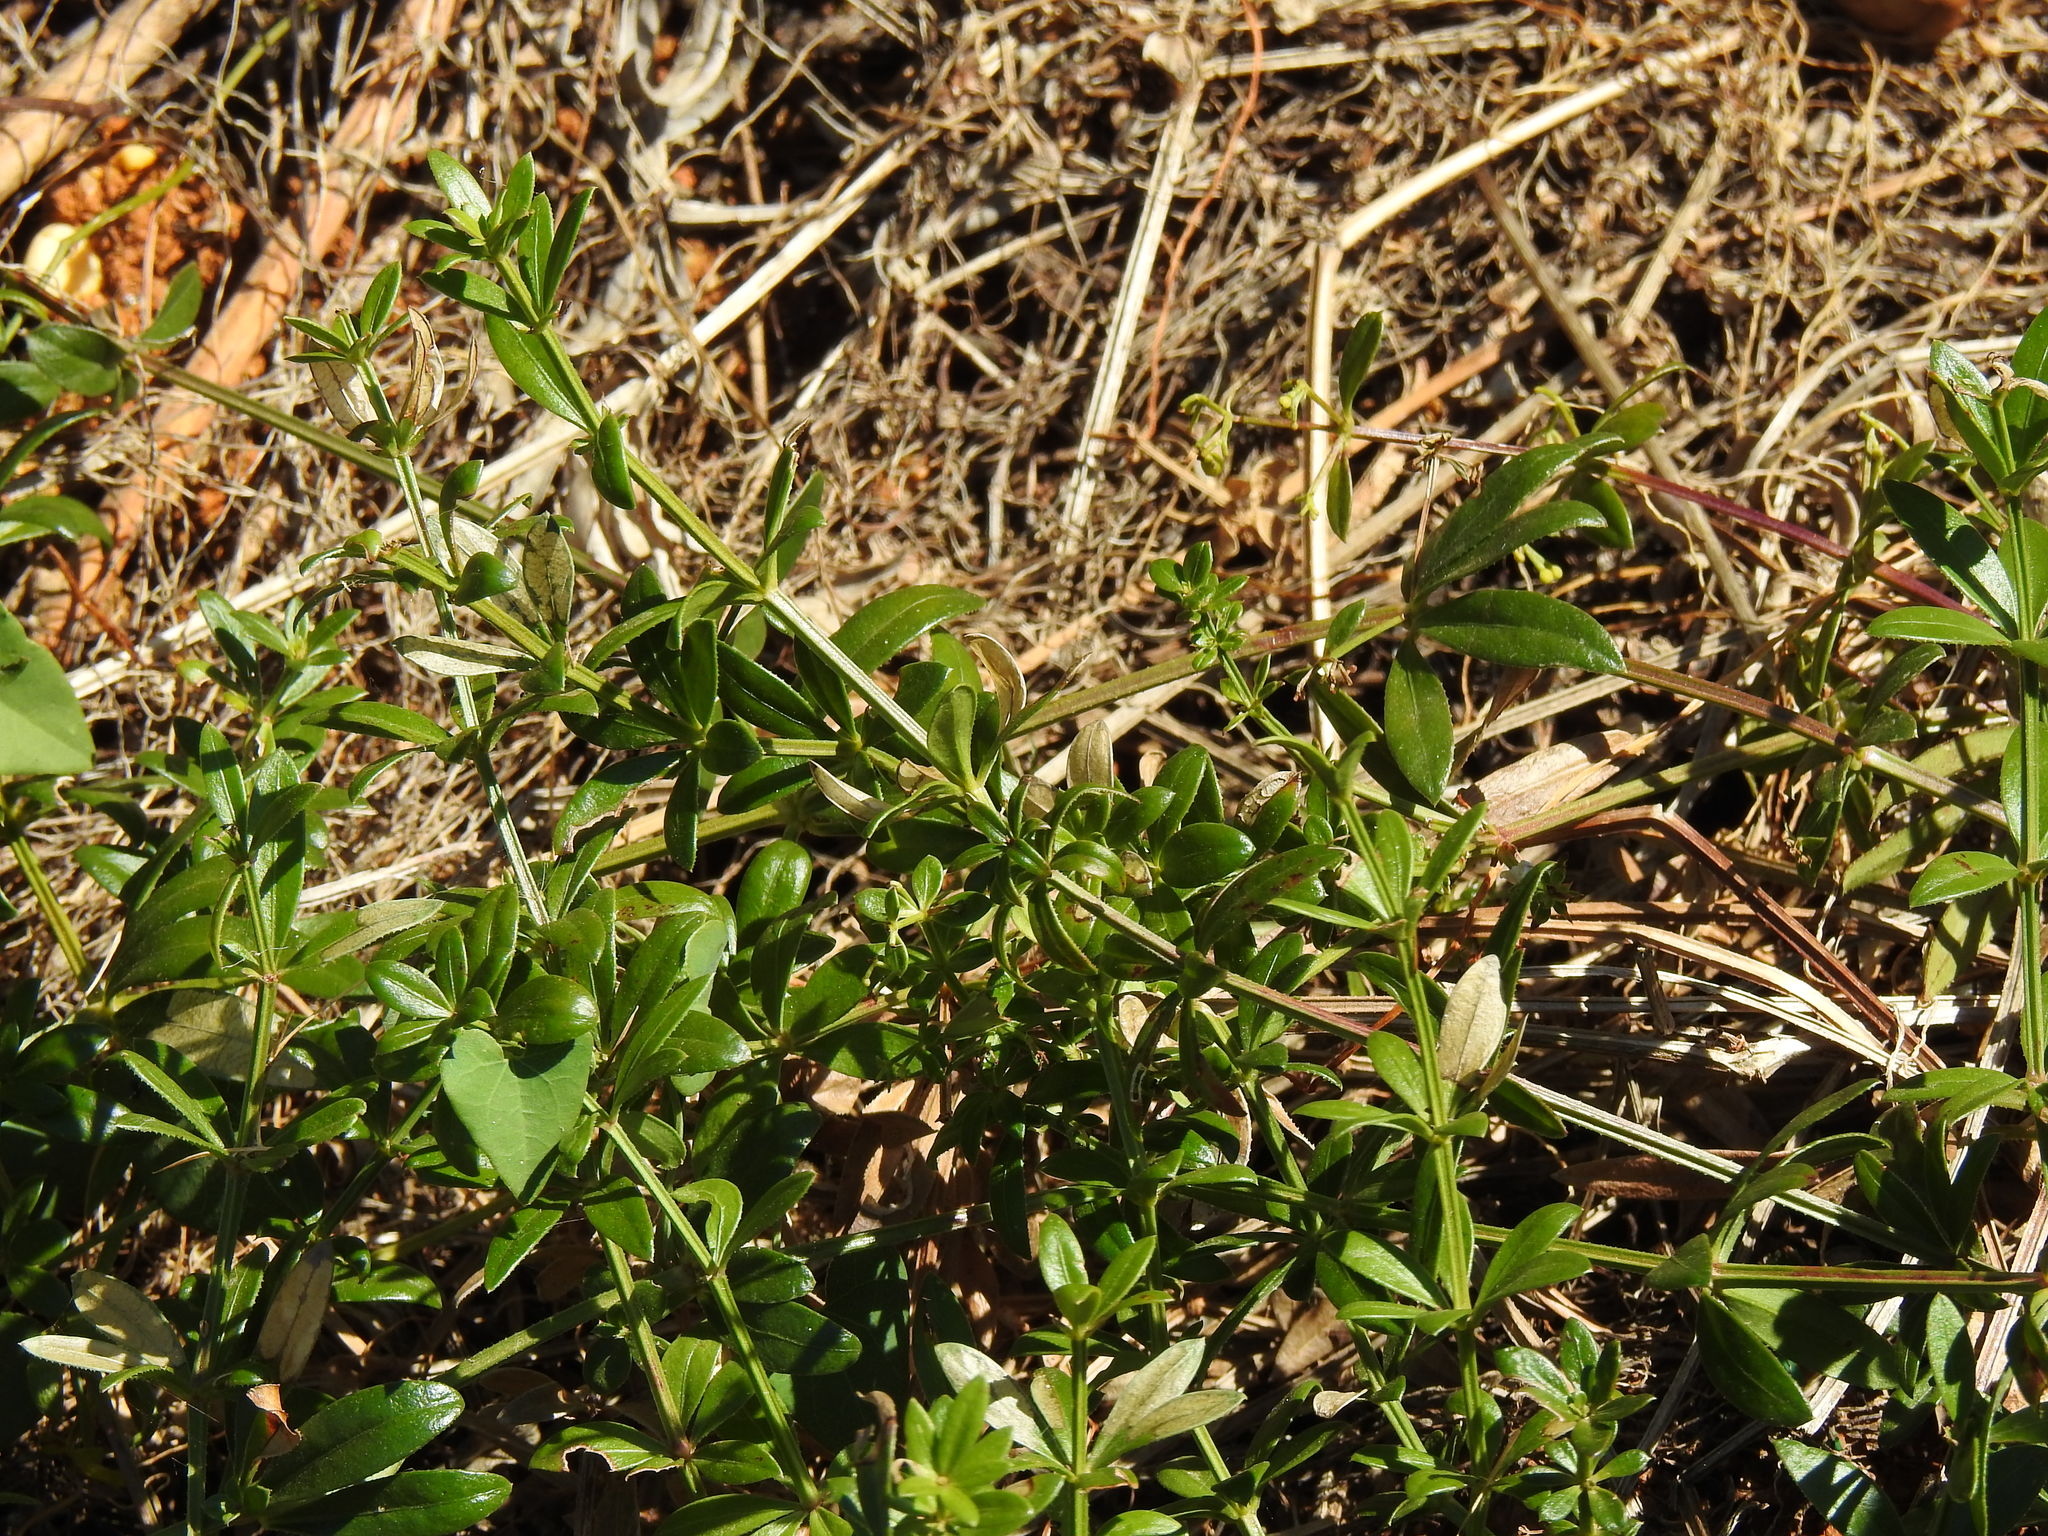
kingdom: Plantae
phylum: Tracheophyta
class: Magnoliopsida
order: Gentianales
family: Rubiaceae
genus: Rubia
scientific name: Rubia peregrina
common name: Wild madder
